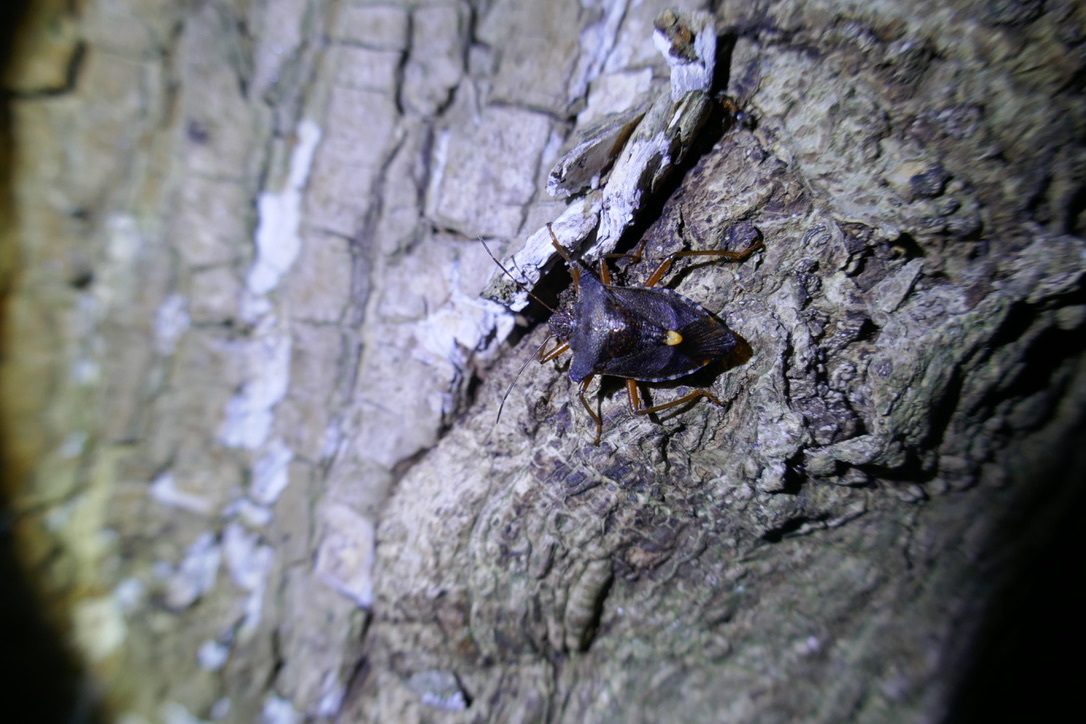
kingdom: Animalia
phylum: Arthropoda
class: Insecta
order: Hemiptera
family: Pentatomidae
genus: Pentatoma
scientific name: Pentatoma rufipes
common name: Forest bug
